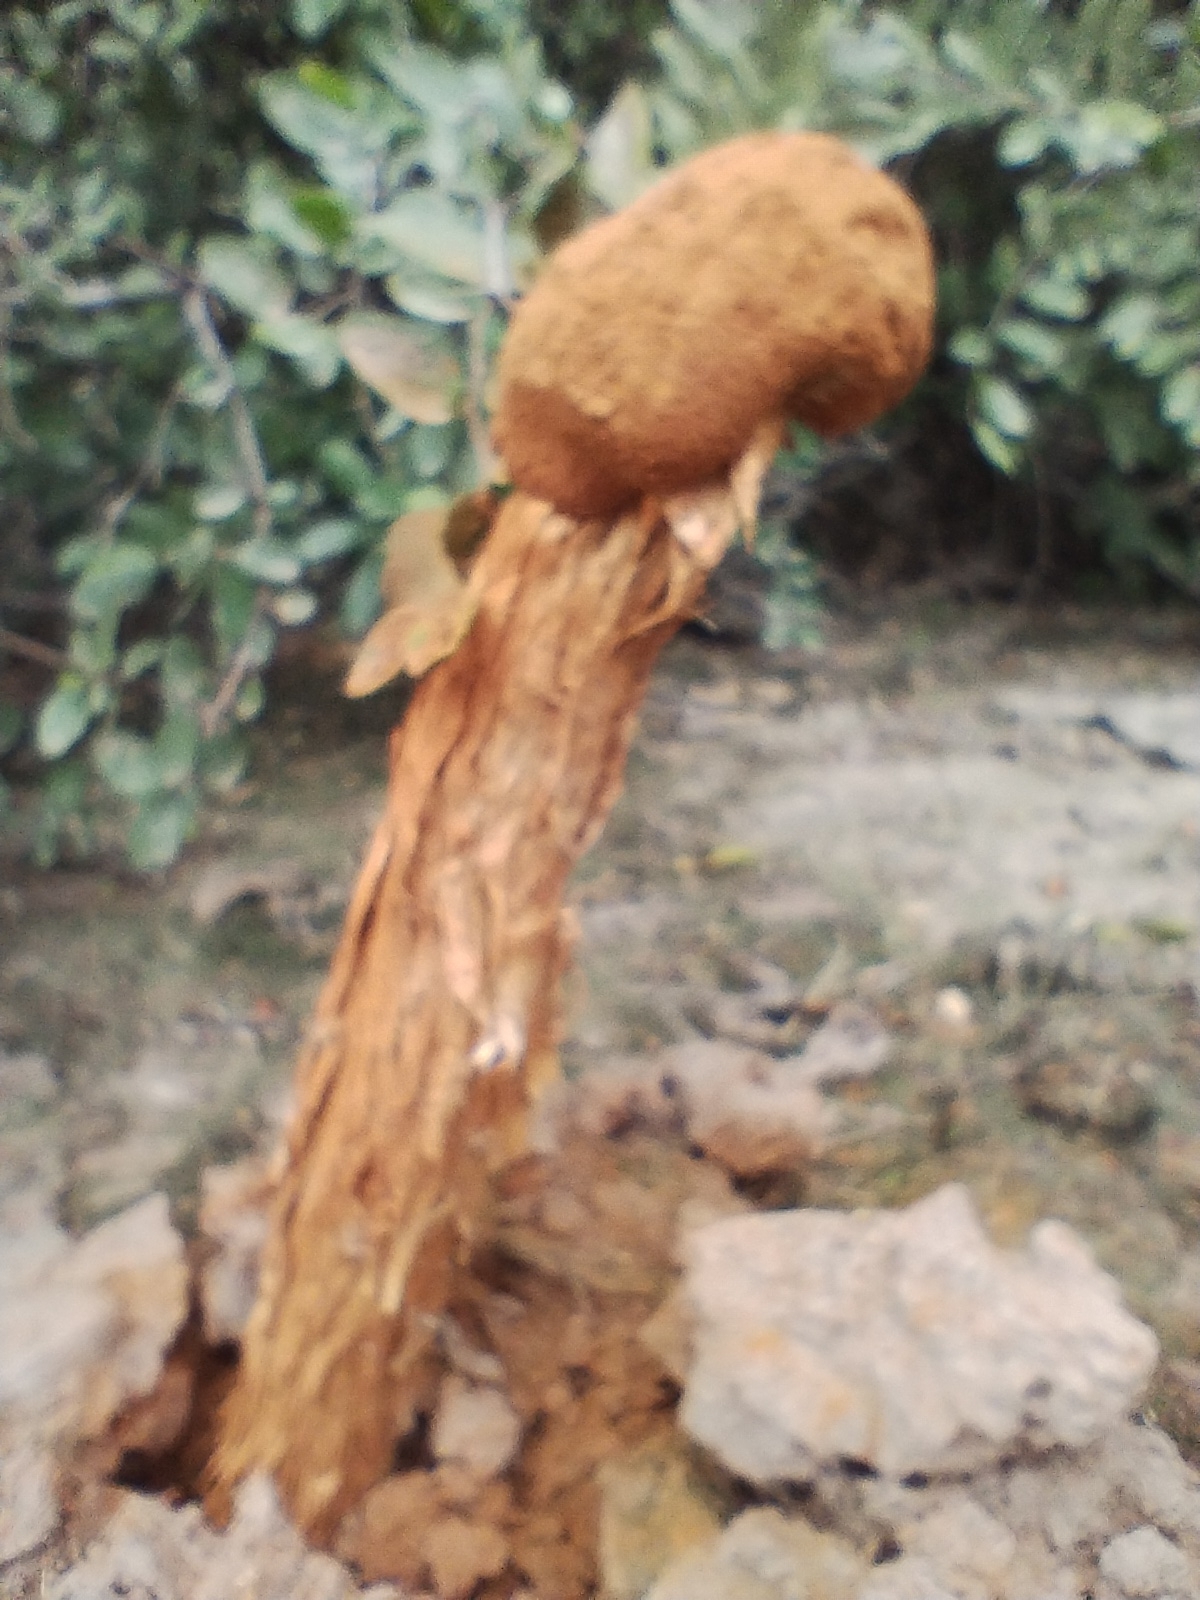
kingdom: Fungi
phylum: Basidiomycota
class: Agaricomycetes
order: Agaricales
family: Agaricaceae
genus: Battarrea
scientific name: Battarrea phalloides
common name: Sandy stiltball
